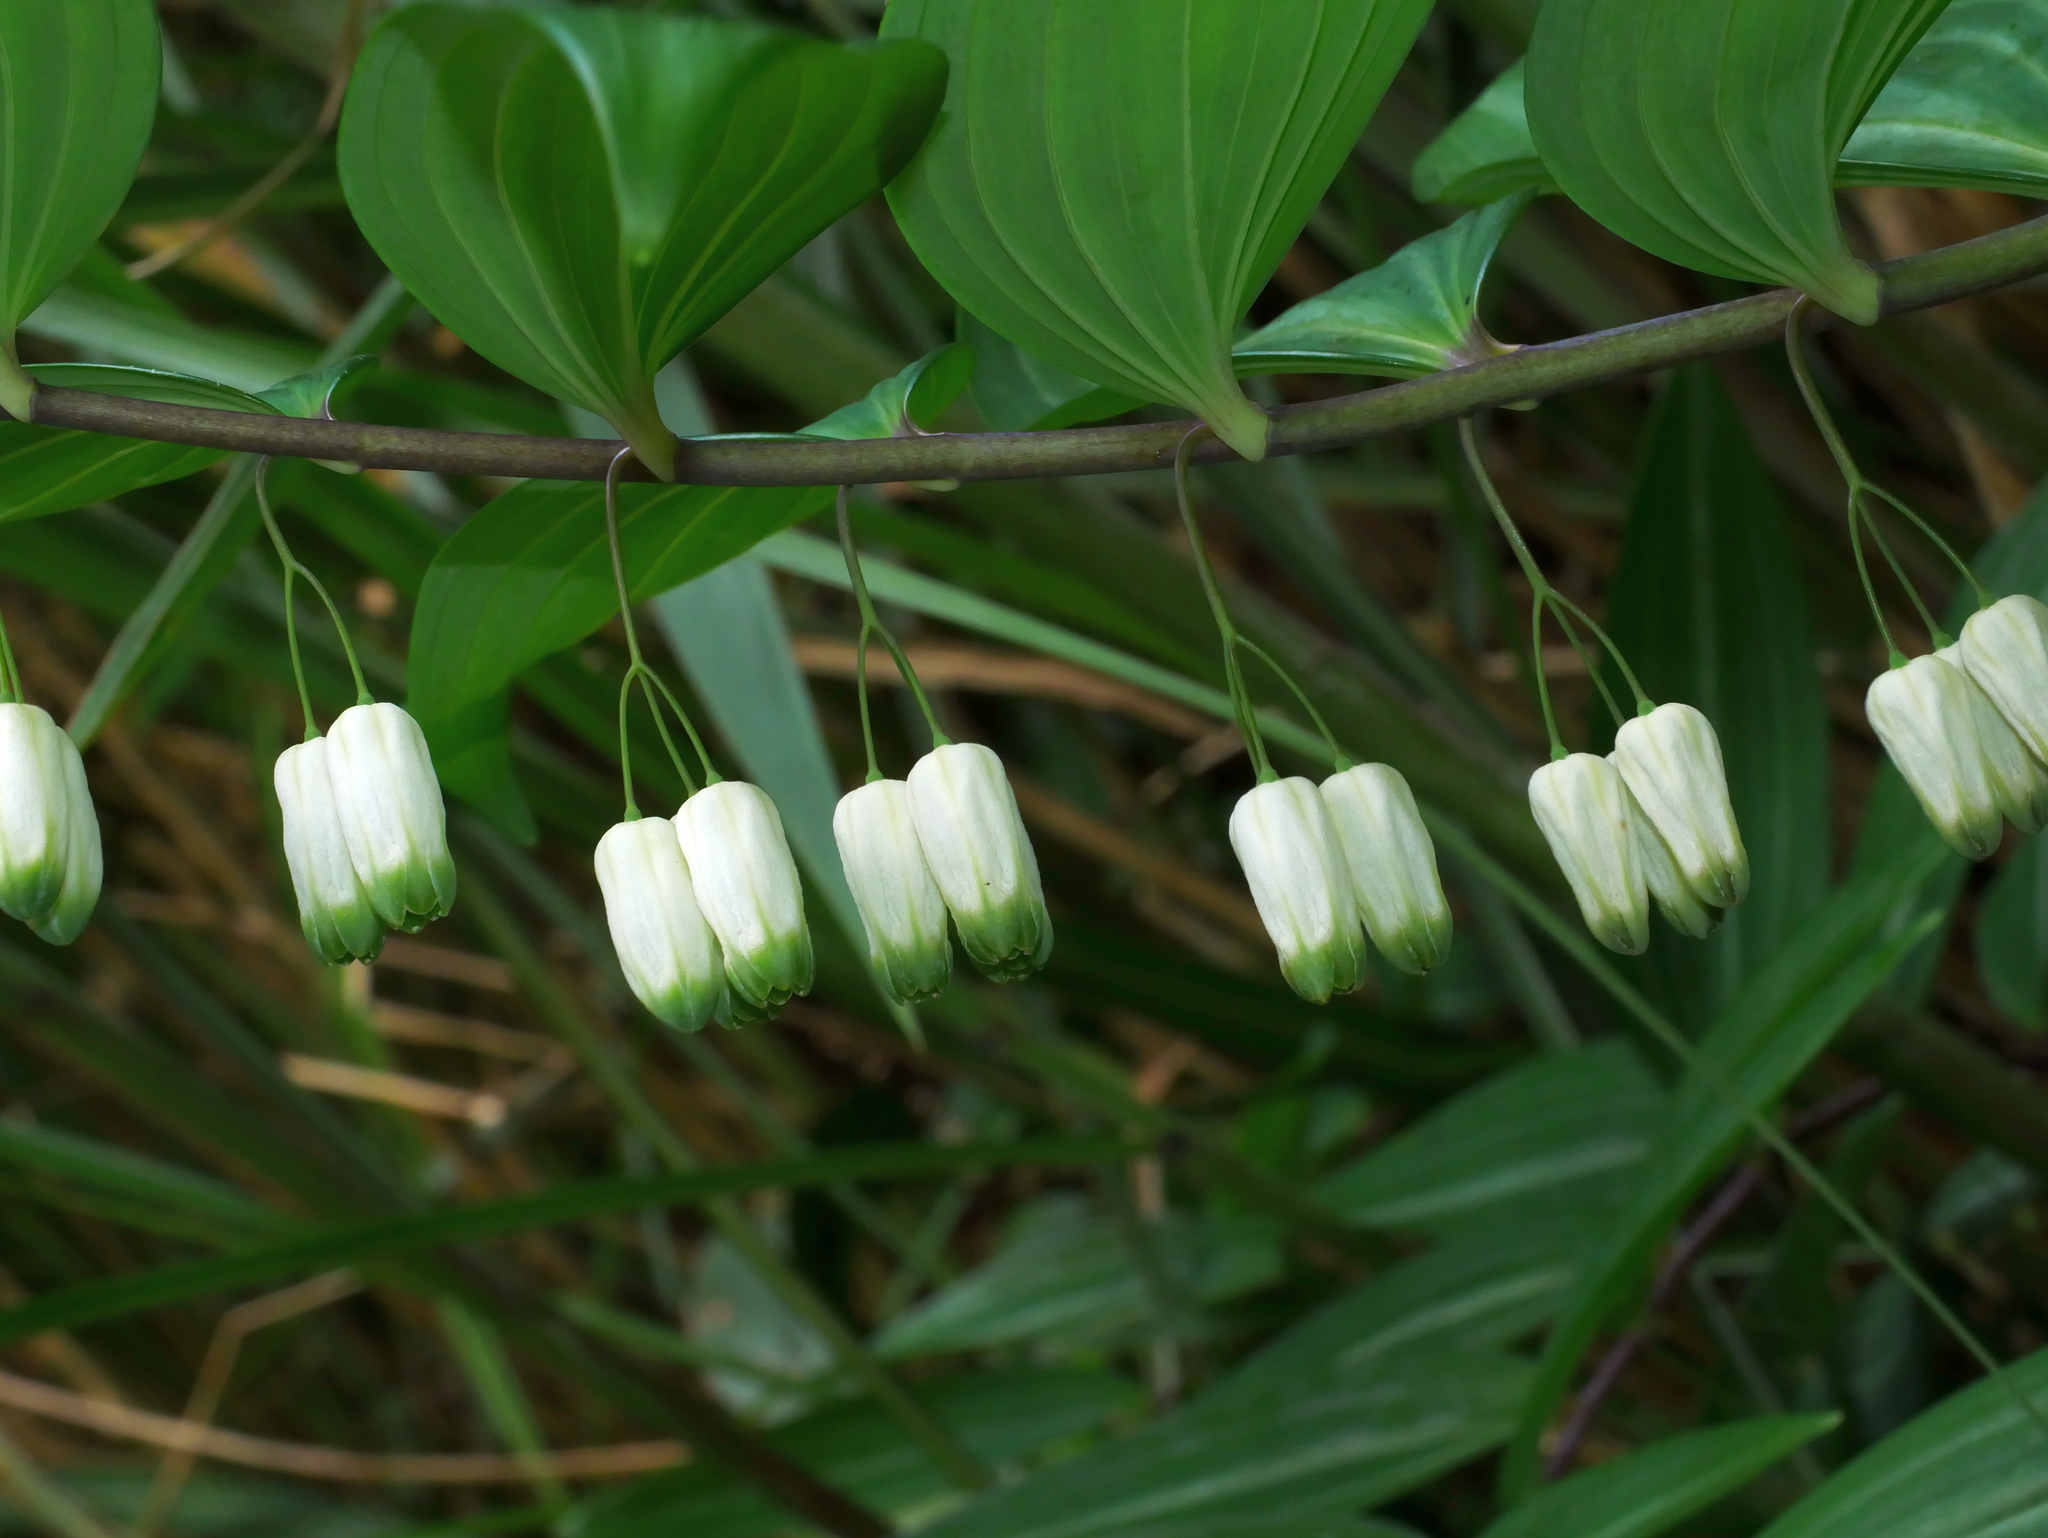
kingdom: Plantae
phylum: Tracheophyta
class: Liliopsida
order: Asparagales
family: Asparagaceae
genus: Polygonatum
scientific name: Polygonatum arisanense
